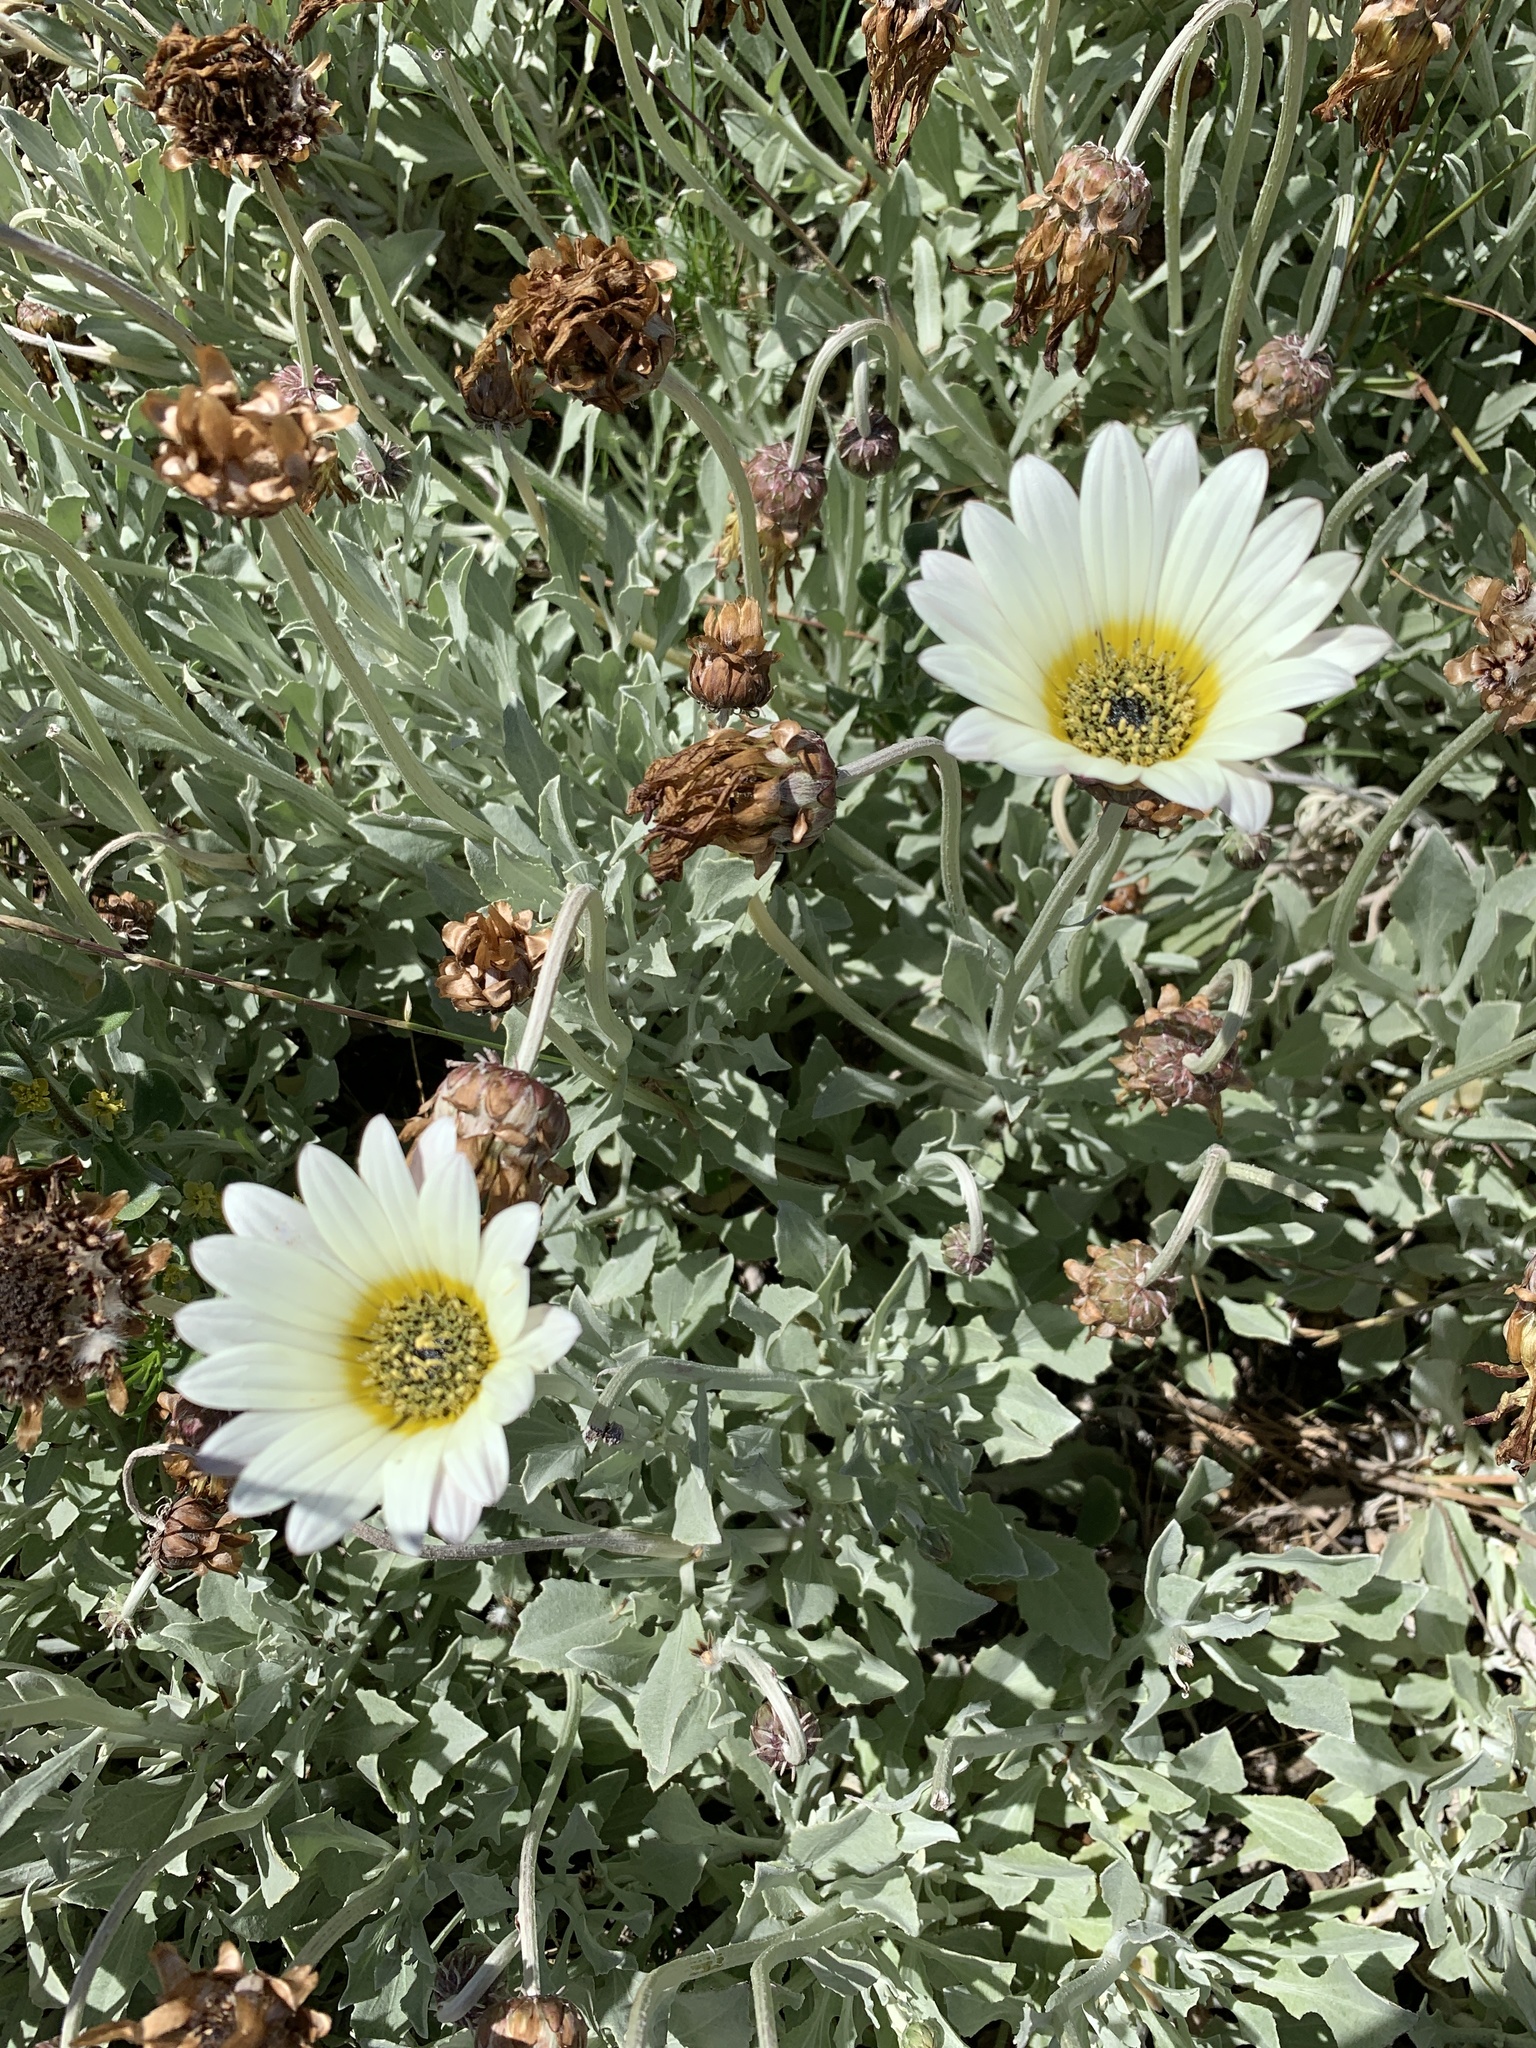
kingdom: Plantae
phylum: Tracheophyta
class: Magnoliopsida
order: Asterales
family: Asteraceae
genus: Arctotis
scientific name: Arctotis stoechadifolia
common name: African daisy
